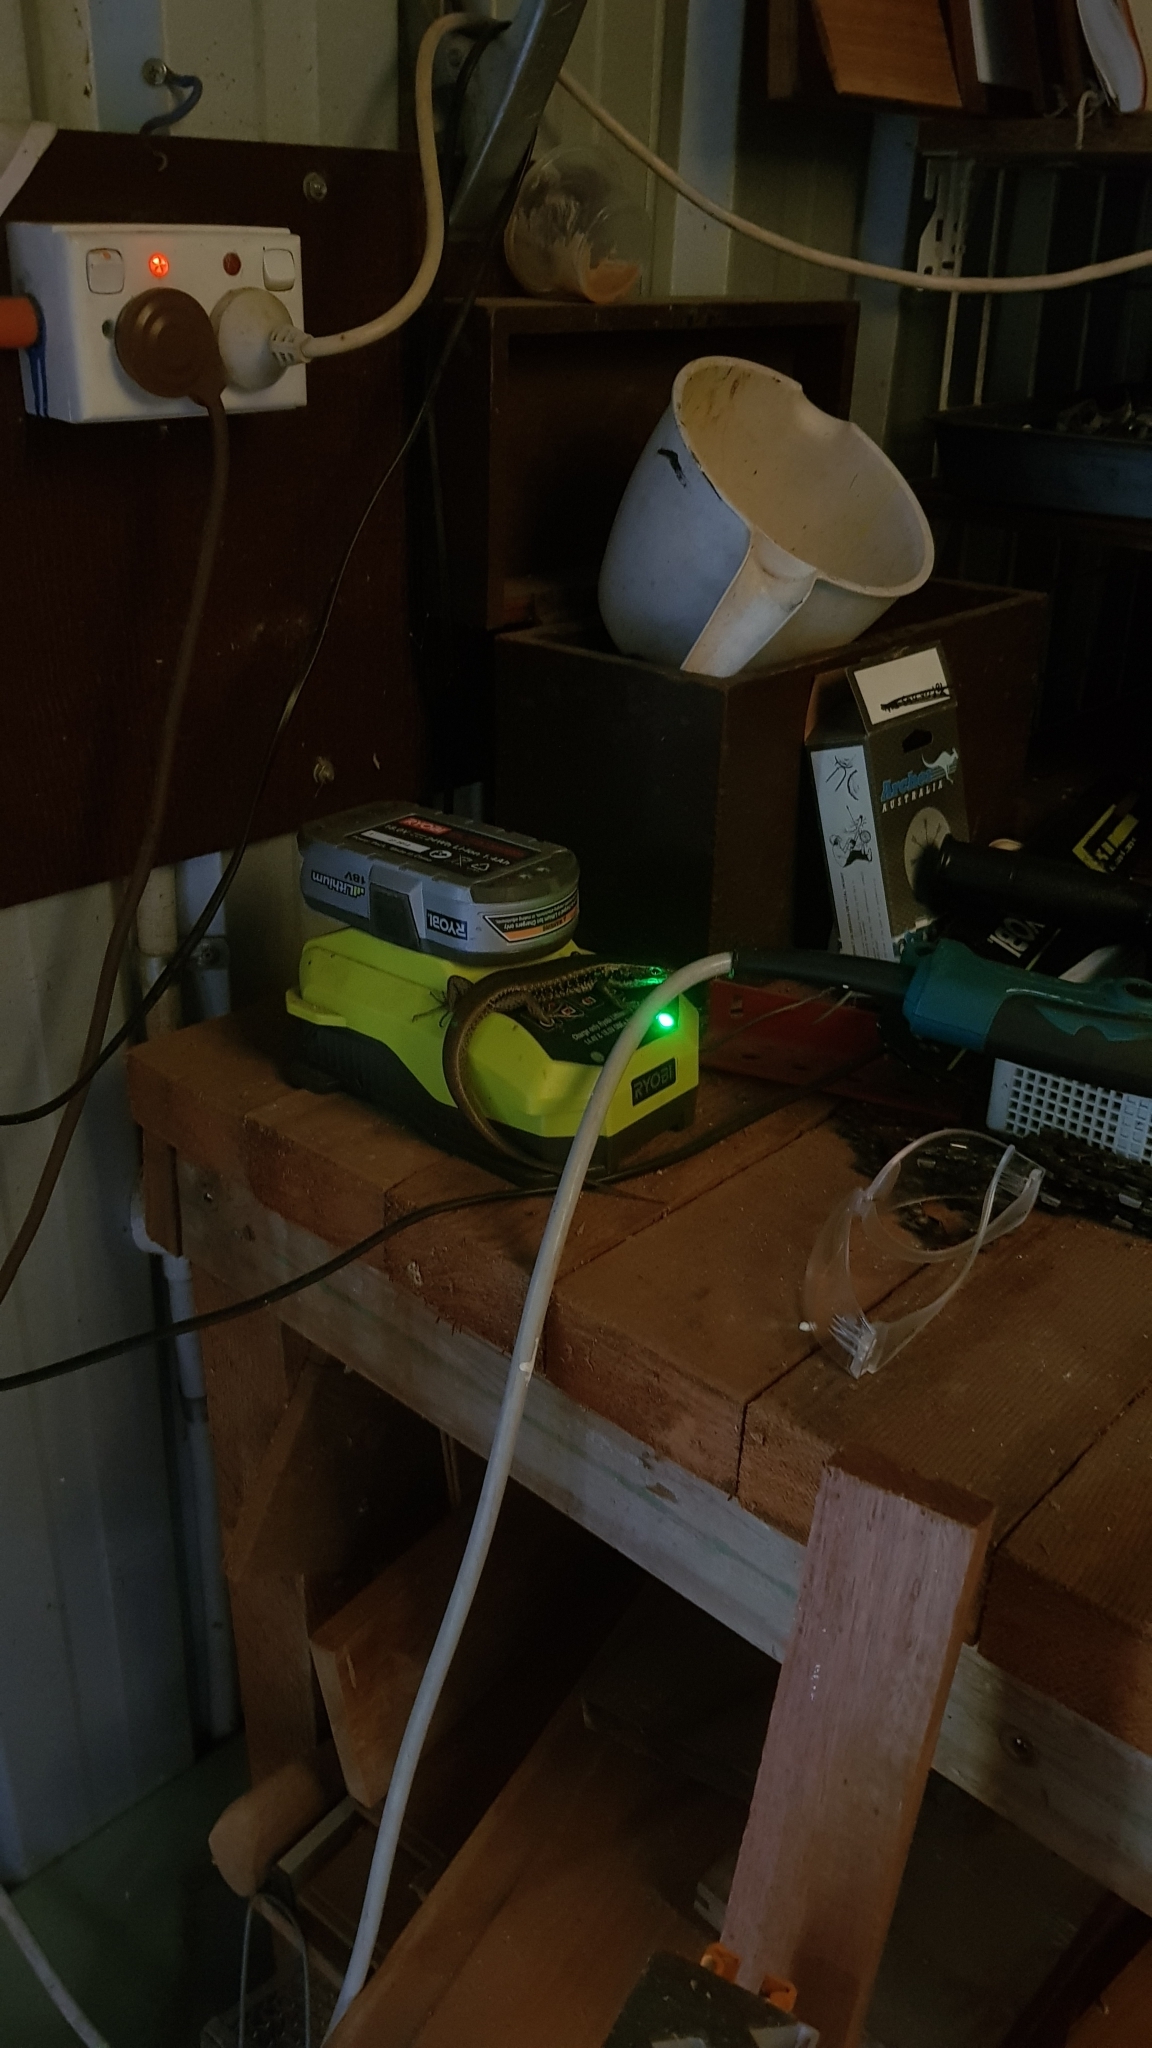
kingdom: Animalia
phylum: Chordata
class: Squamata
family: Scincidae
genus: Eulamprus
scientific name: Eulamprus quoyii
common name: Eastern water skink
